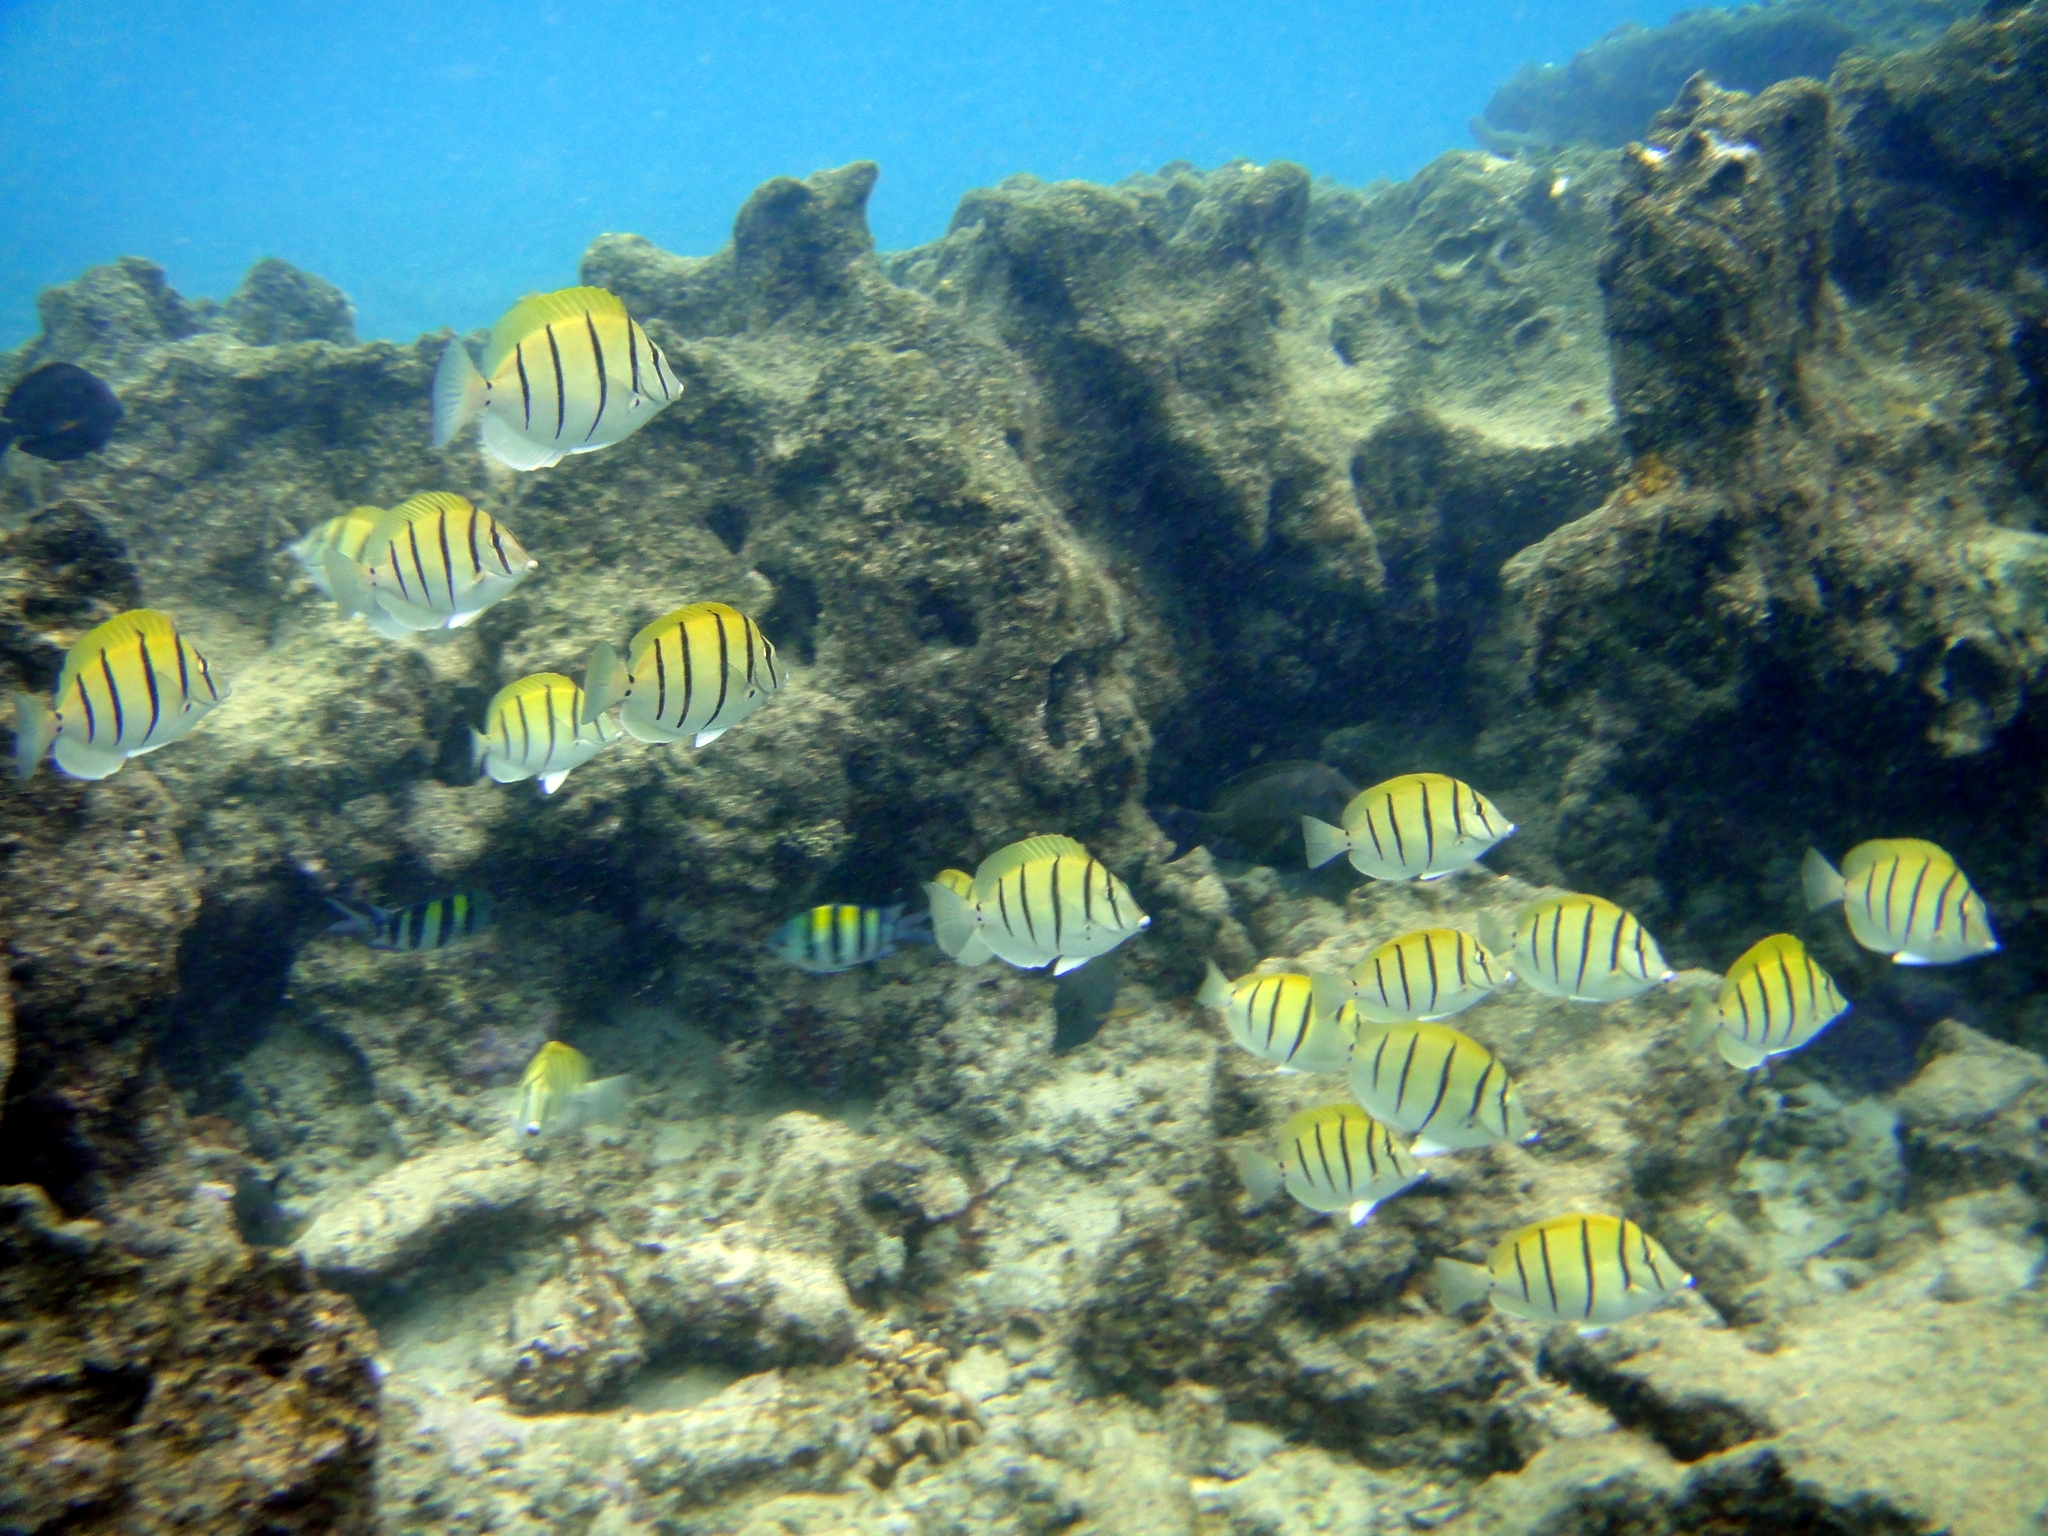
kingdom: Animalia
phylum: Chordata
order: Perciformes
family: Acanthuridae
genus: Acanthurus
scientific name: Acanthurus triostegus
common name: Convict surgeonfish
